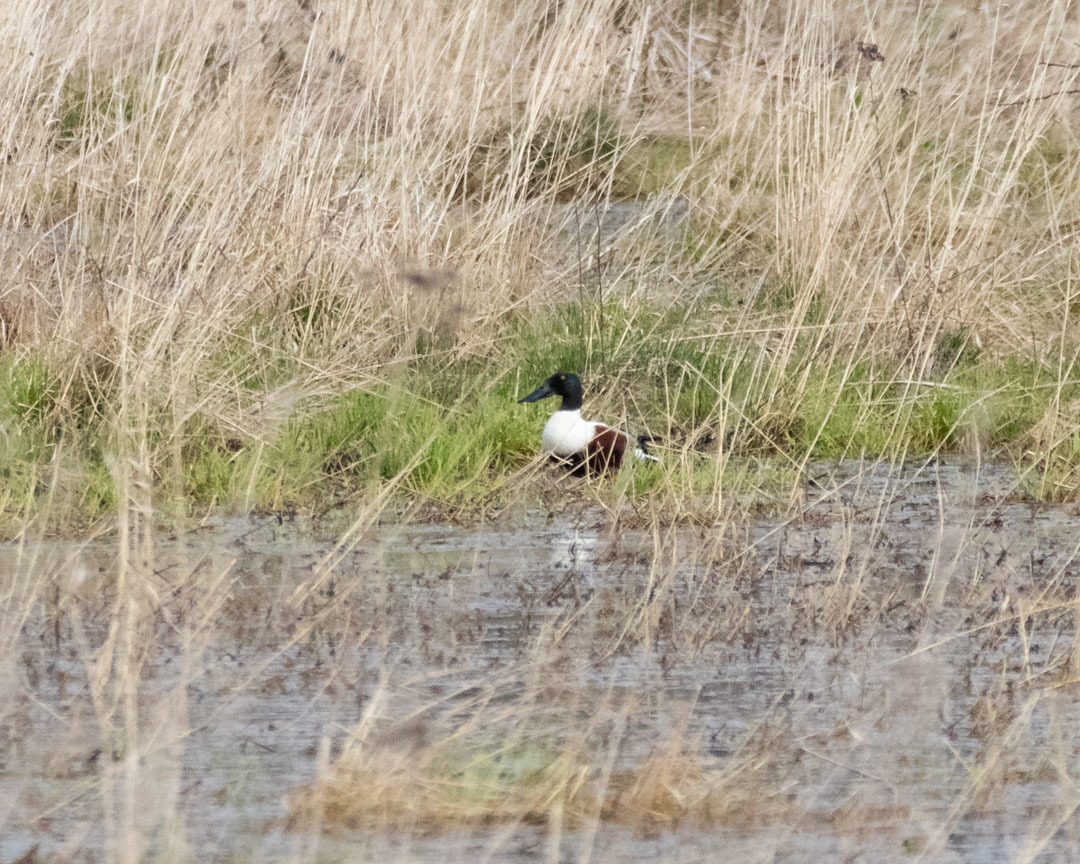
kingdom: Animalia
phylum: Chordata
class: Aves
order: Anseriformes
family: Anatidae
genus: Spatula
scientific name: Spatula clypeata
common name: Northern shoveler
